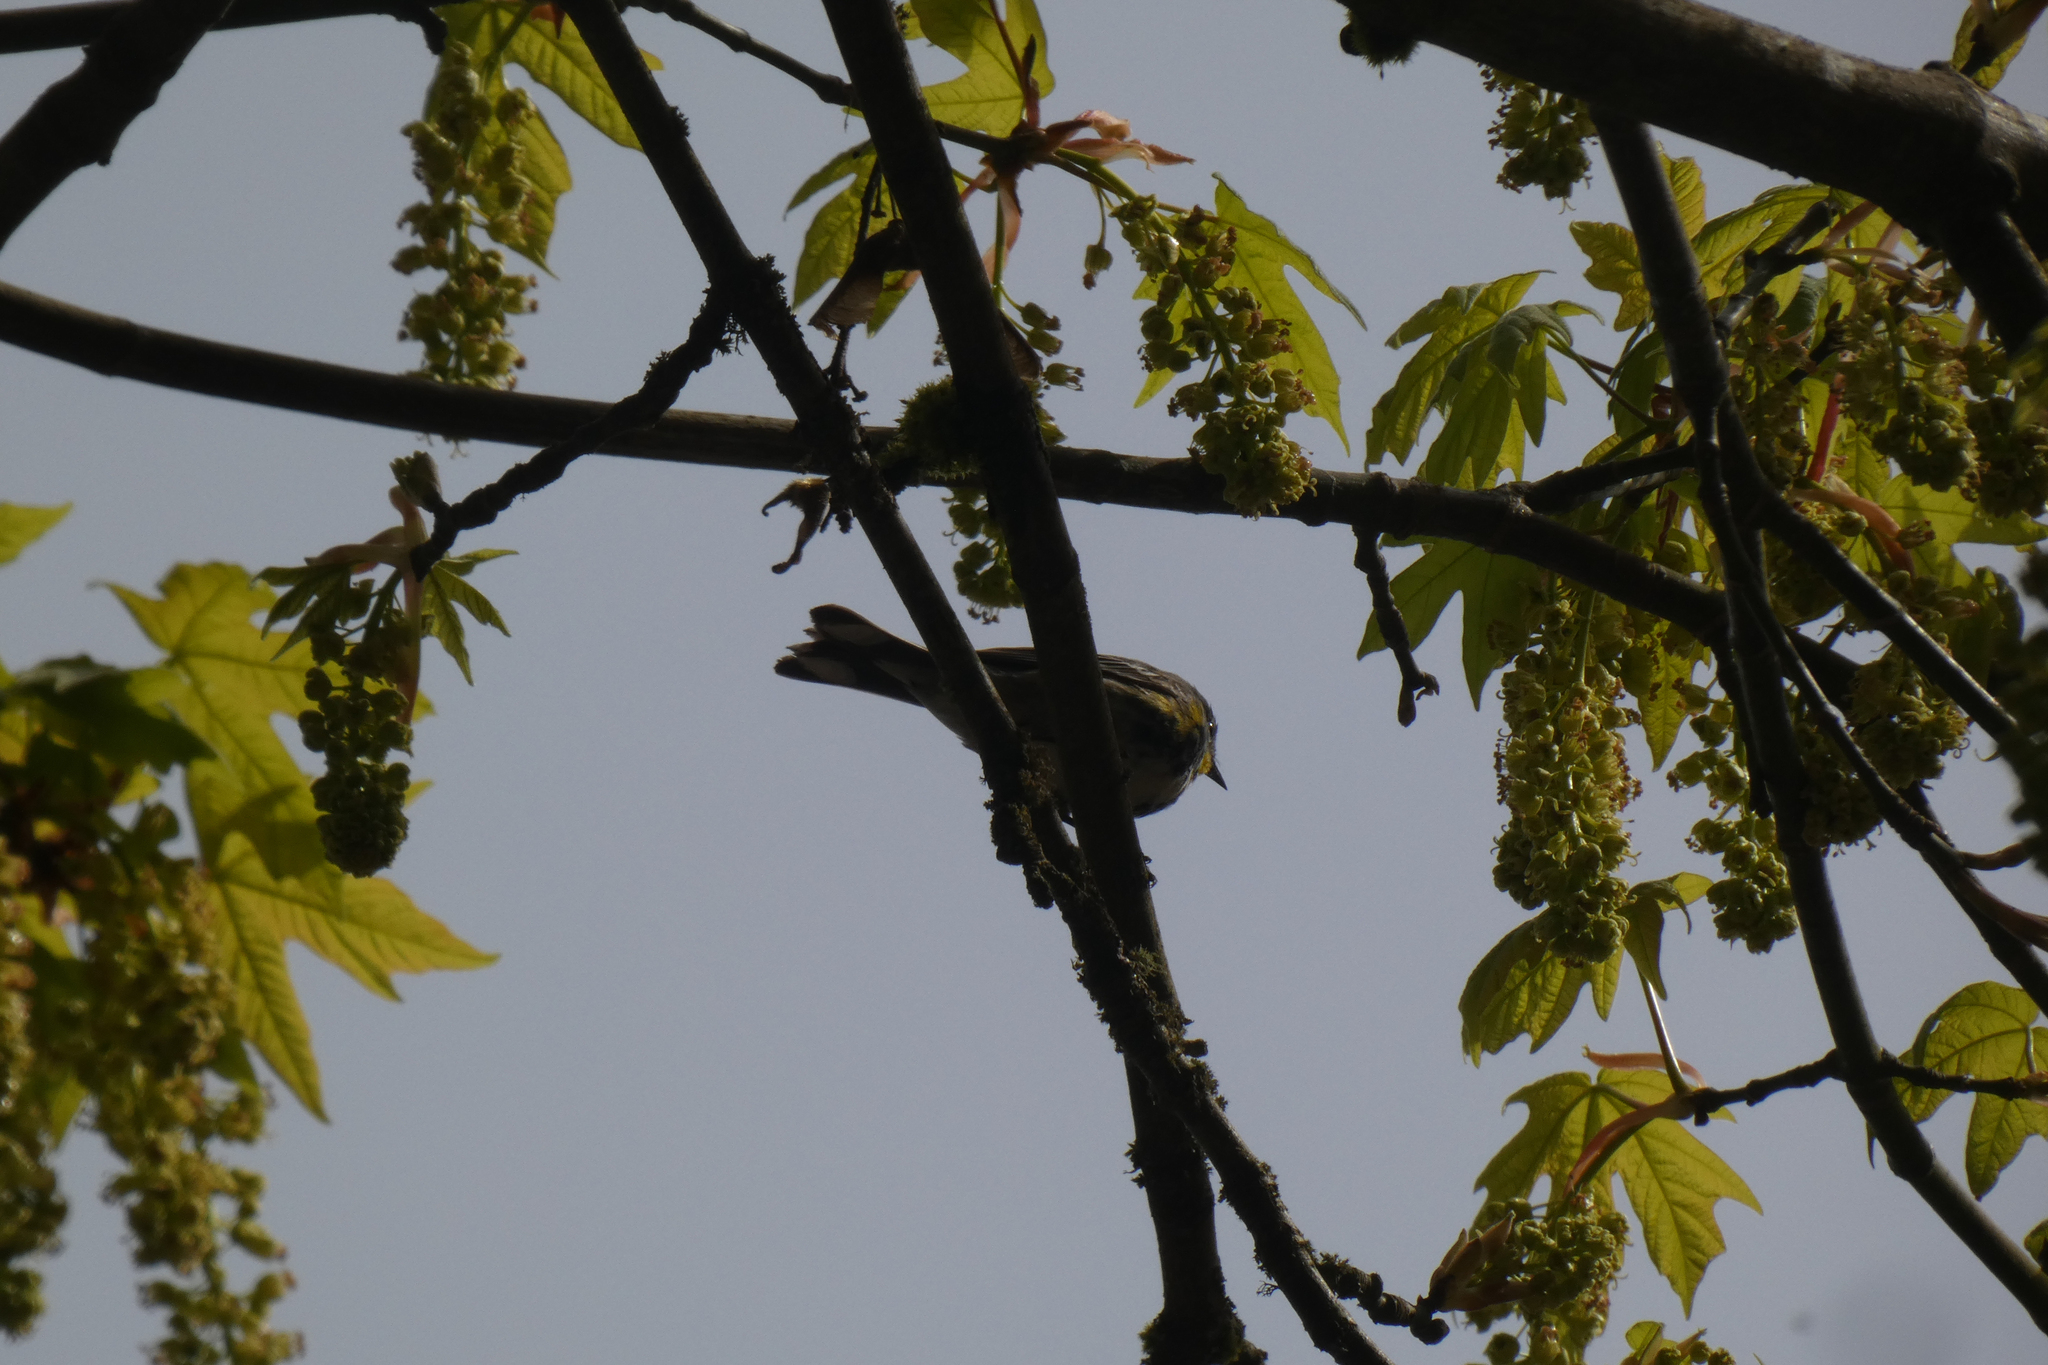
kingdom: Animalia
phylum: Chordata
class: Aves
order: Passeriformes
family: Parulidae
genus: Setophaga
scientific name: Setophaga coronata
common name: Myrtle warbler
